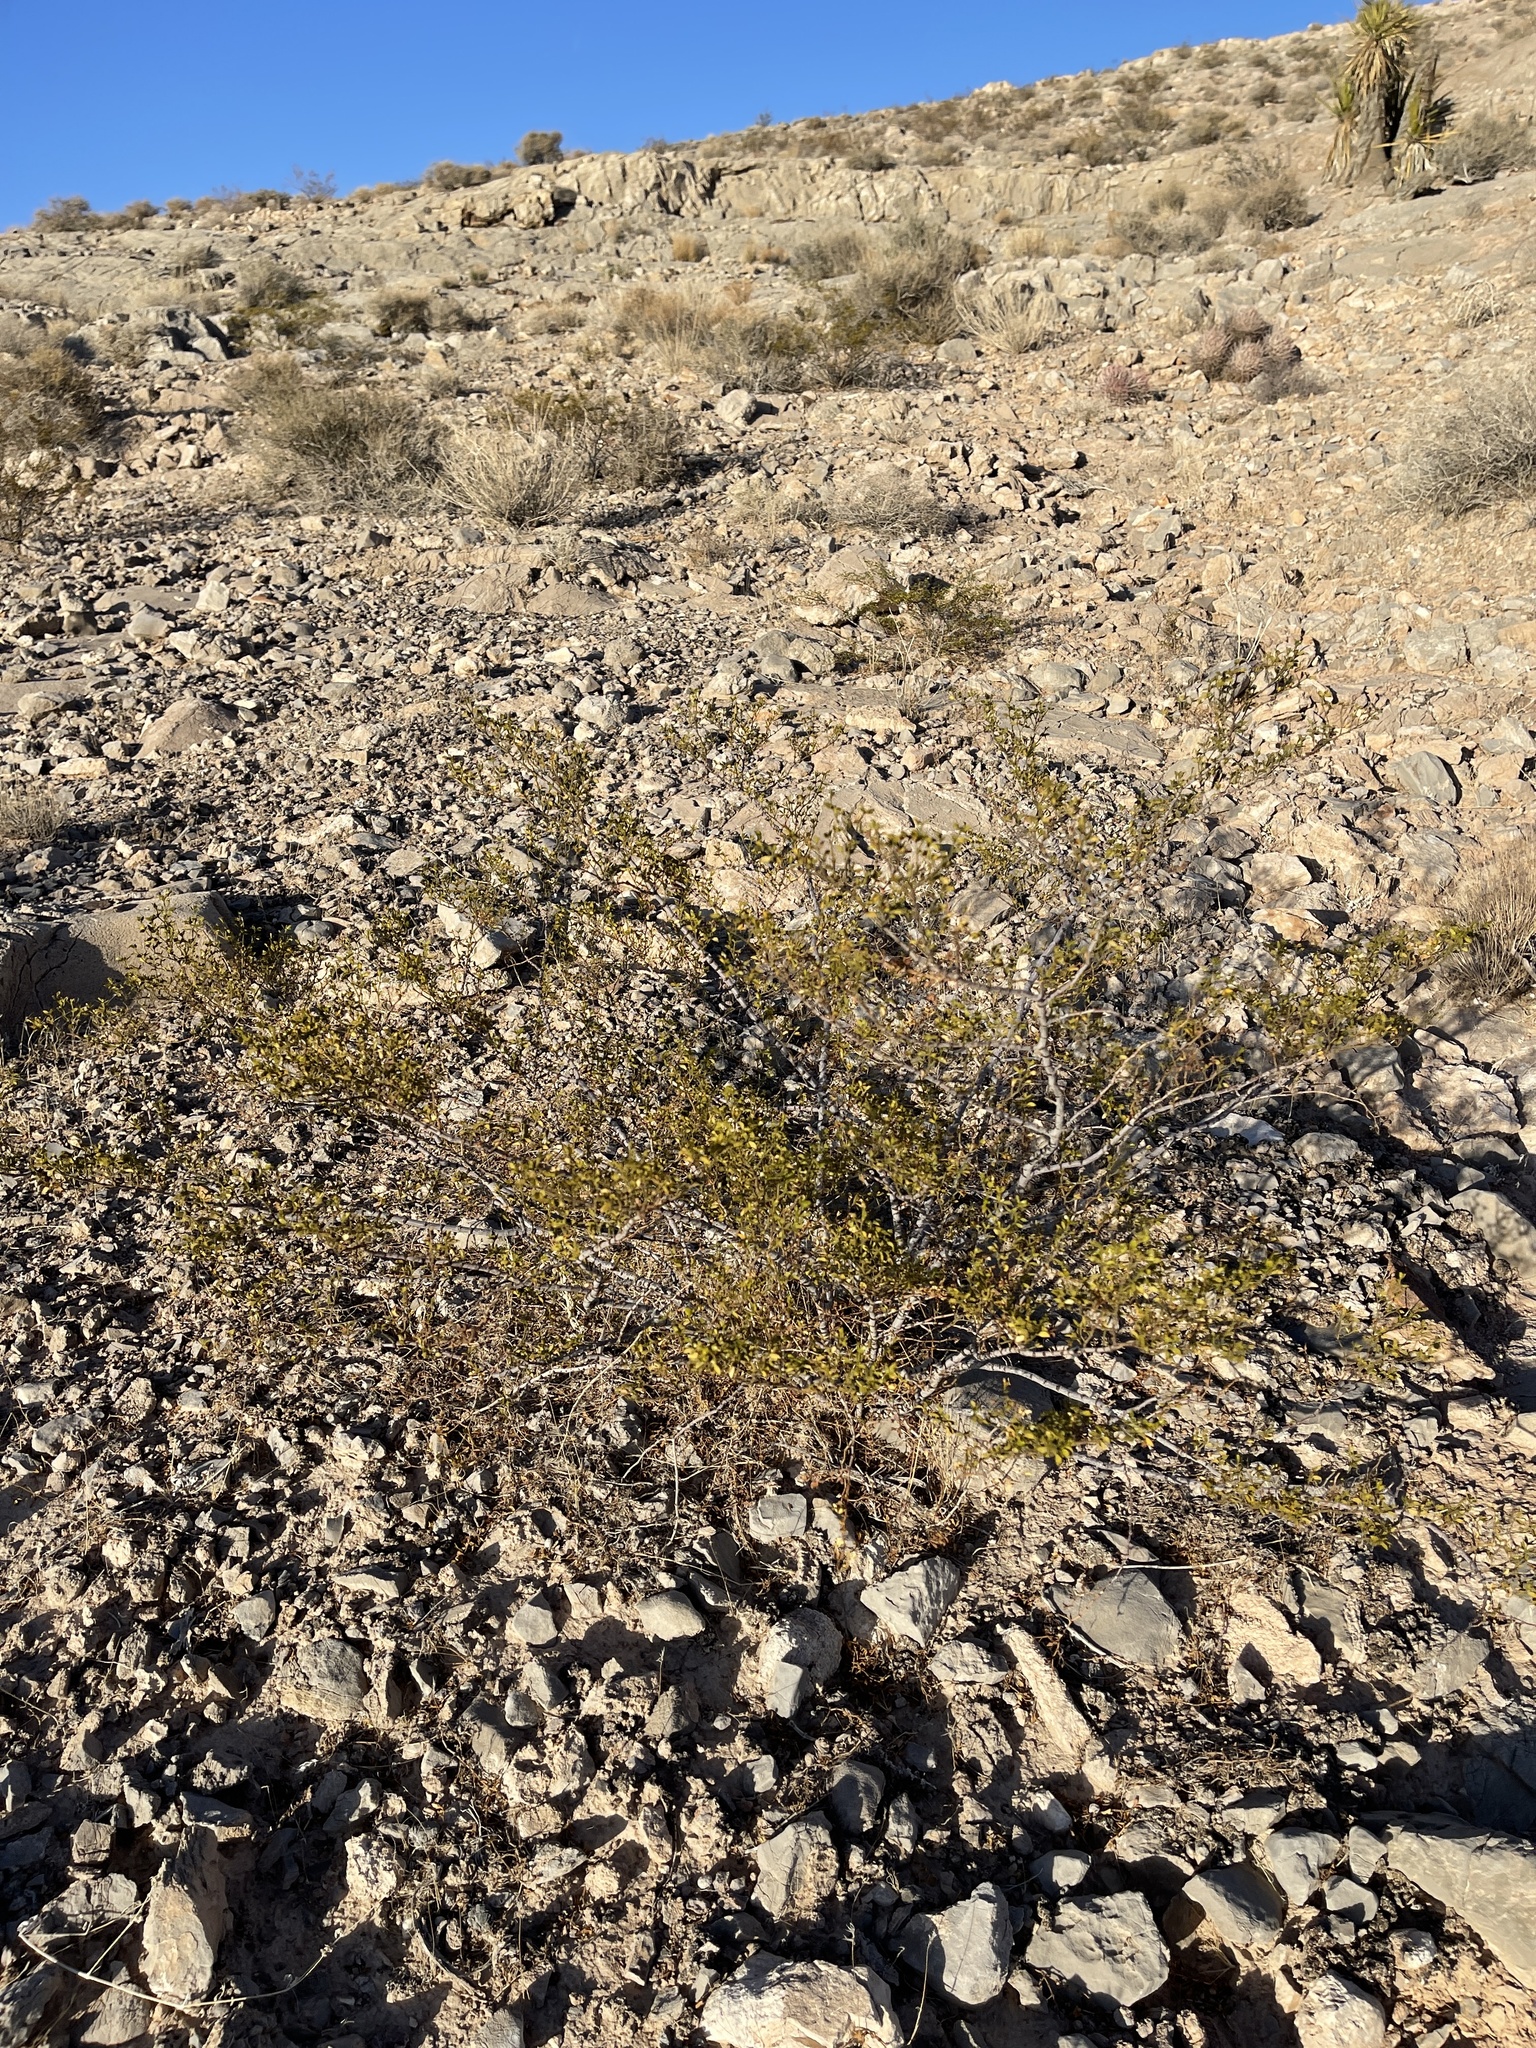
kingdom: Plantae
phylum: Tracheophyta
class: Magnoliopsida
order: Zygophyllales
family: Zygophyllaceae
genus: Larrea
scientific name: Larrea tridentata
